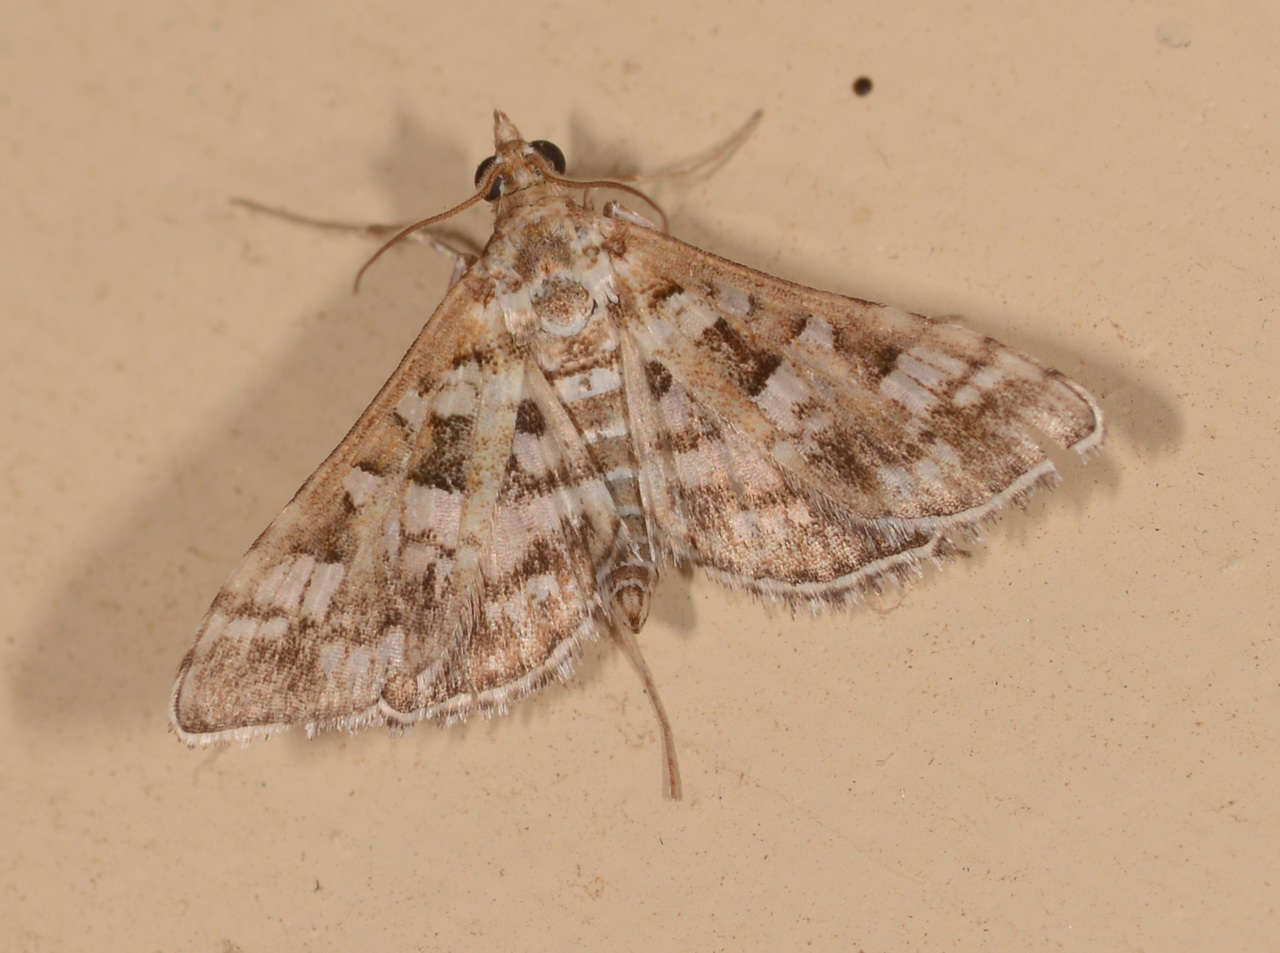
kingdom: Animalia
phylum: Arthropoda
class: Insecta
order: Lepidoptera
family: Crambidae
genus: Sameodes
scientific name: Sameodes iolealis
